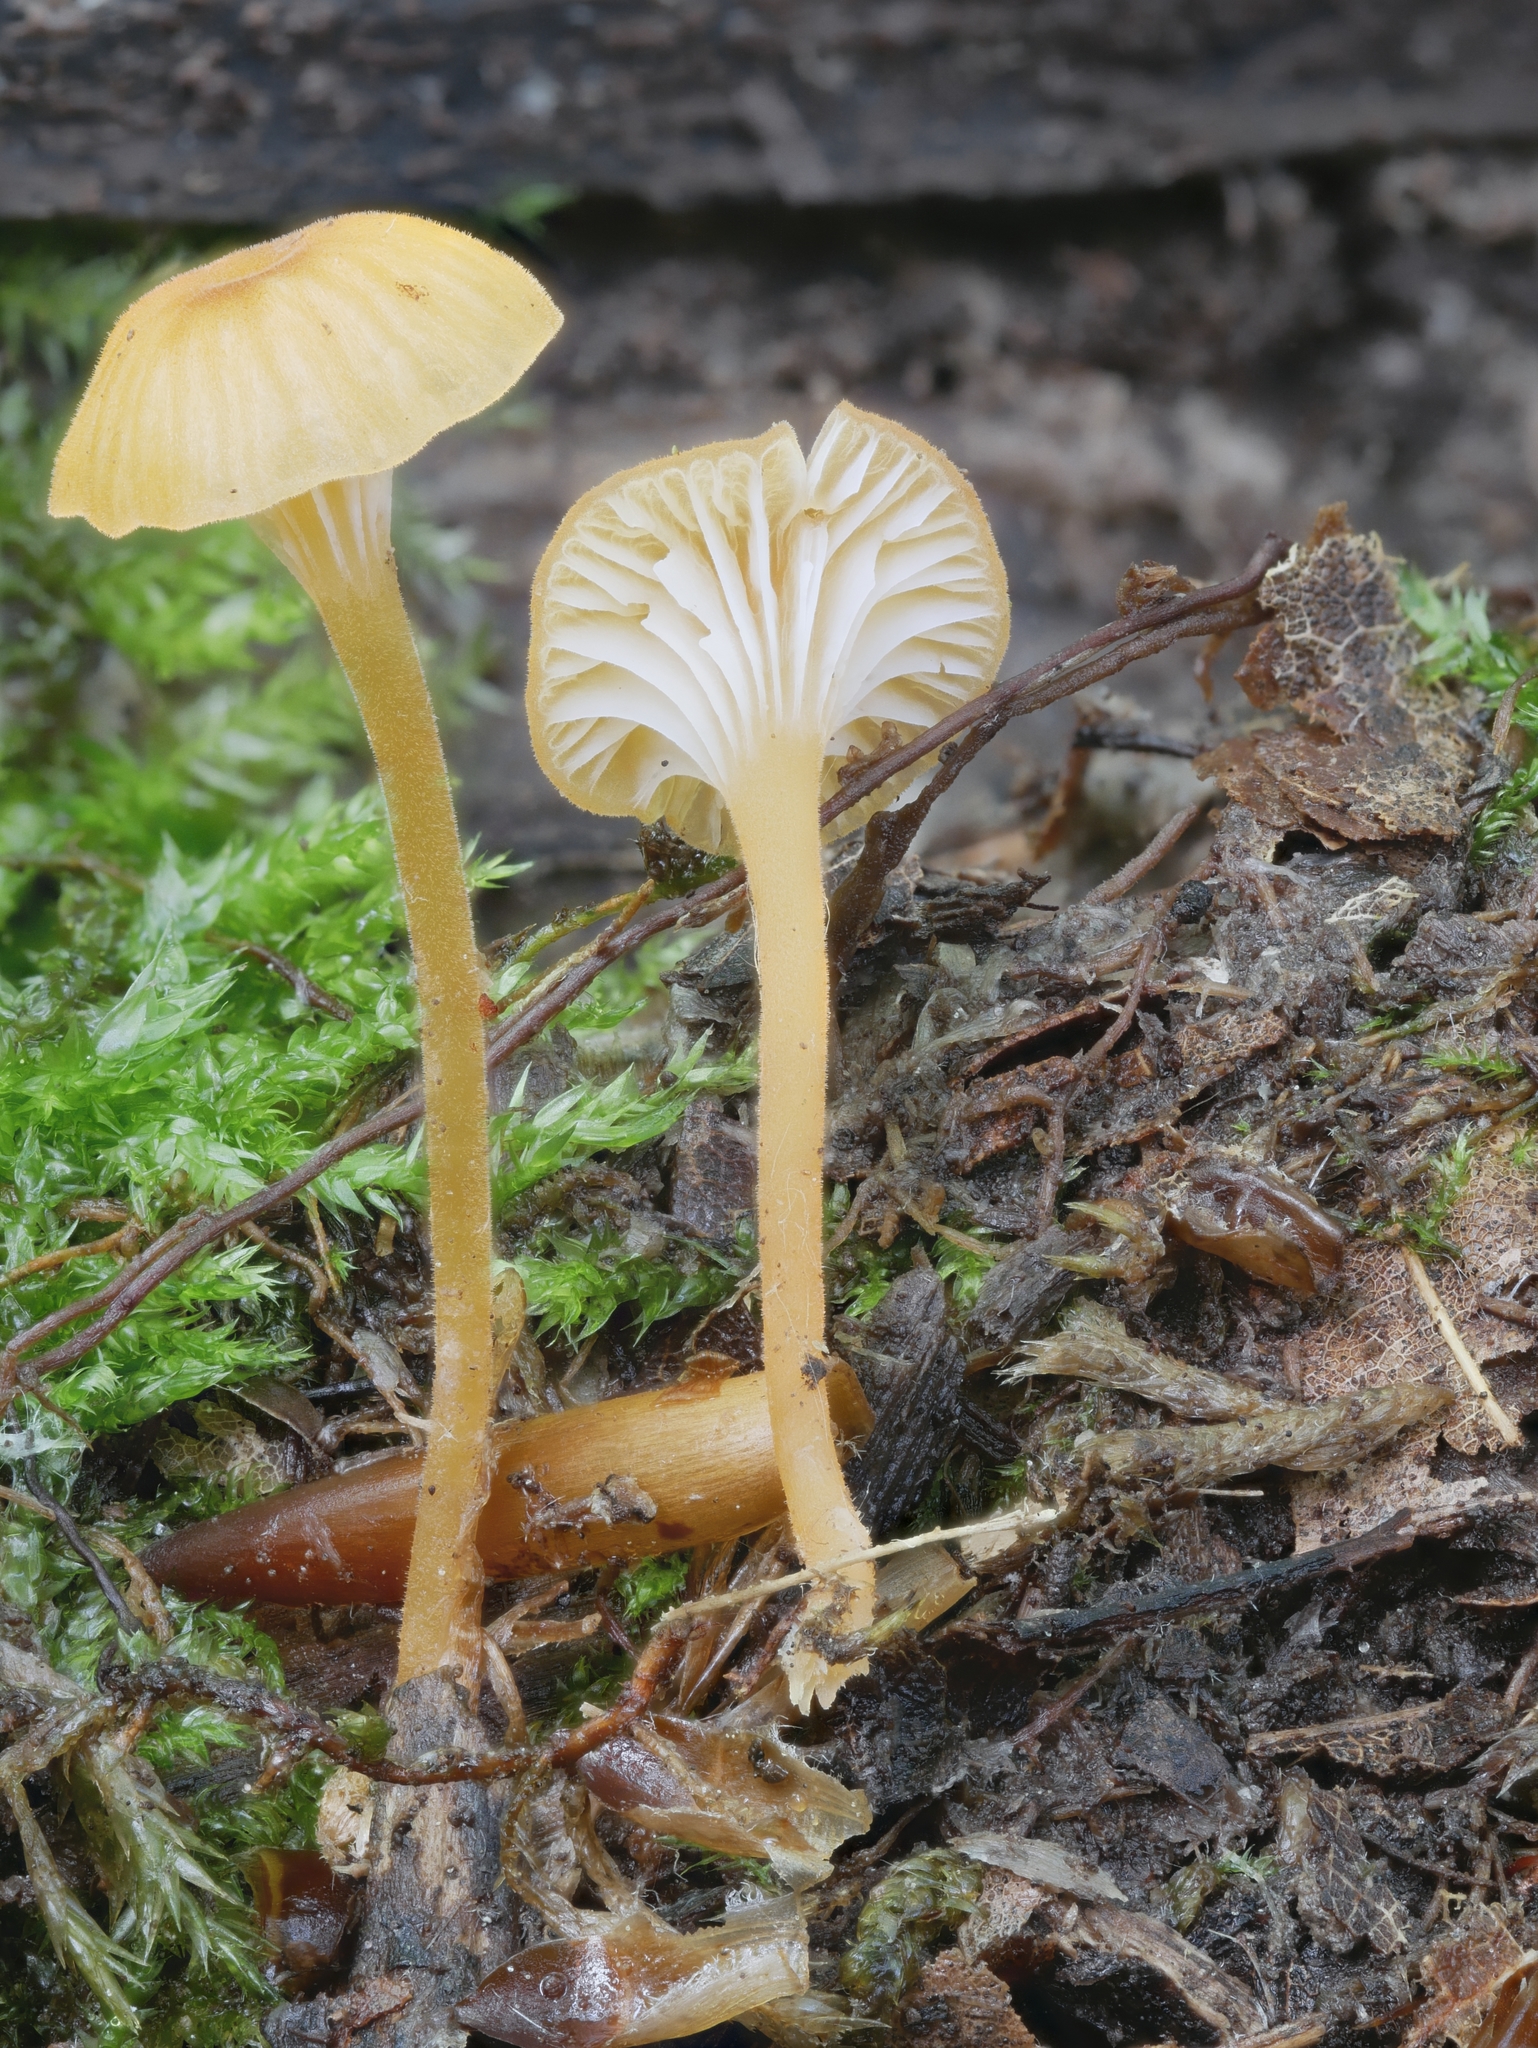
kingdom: Fungi
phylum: Basidiomycota
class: Agaricomycetes
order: Agaricales
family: Hygrophoraceae
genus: Hygrocybe
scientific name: Hygrocybe cantharellus
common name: Goblet waxcap
